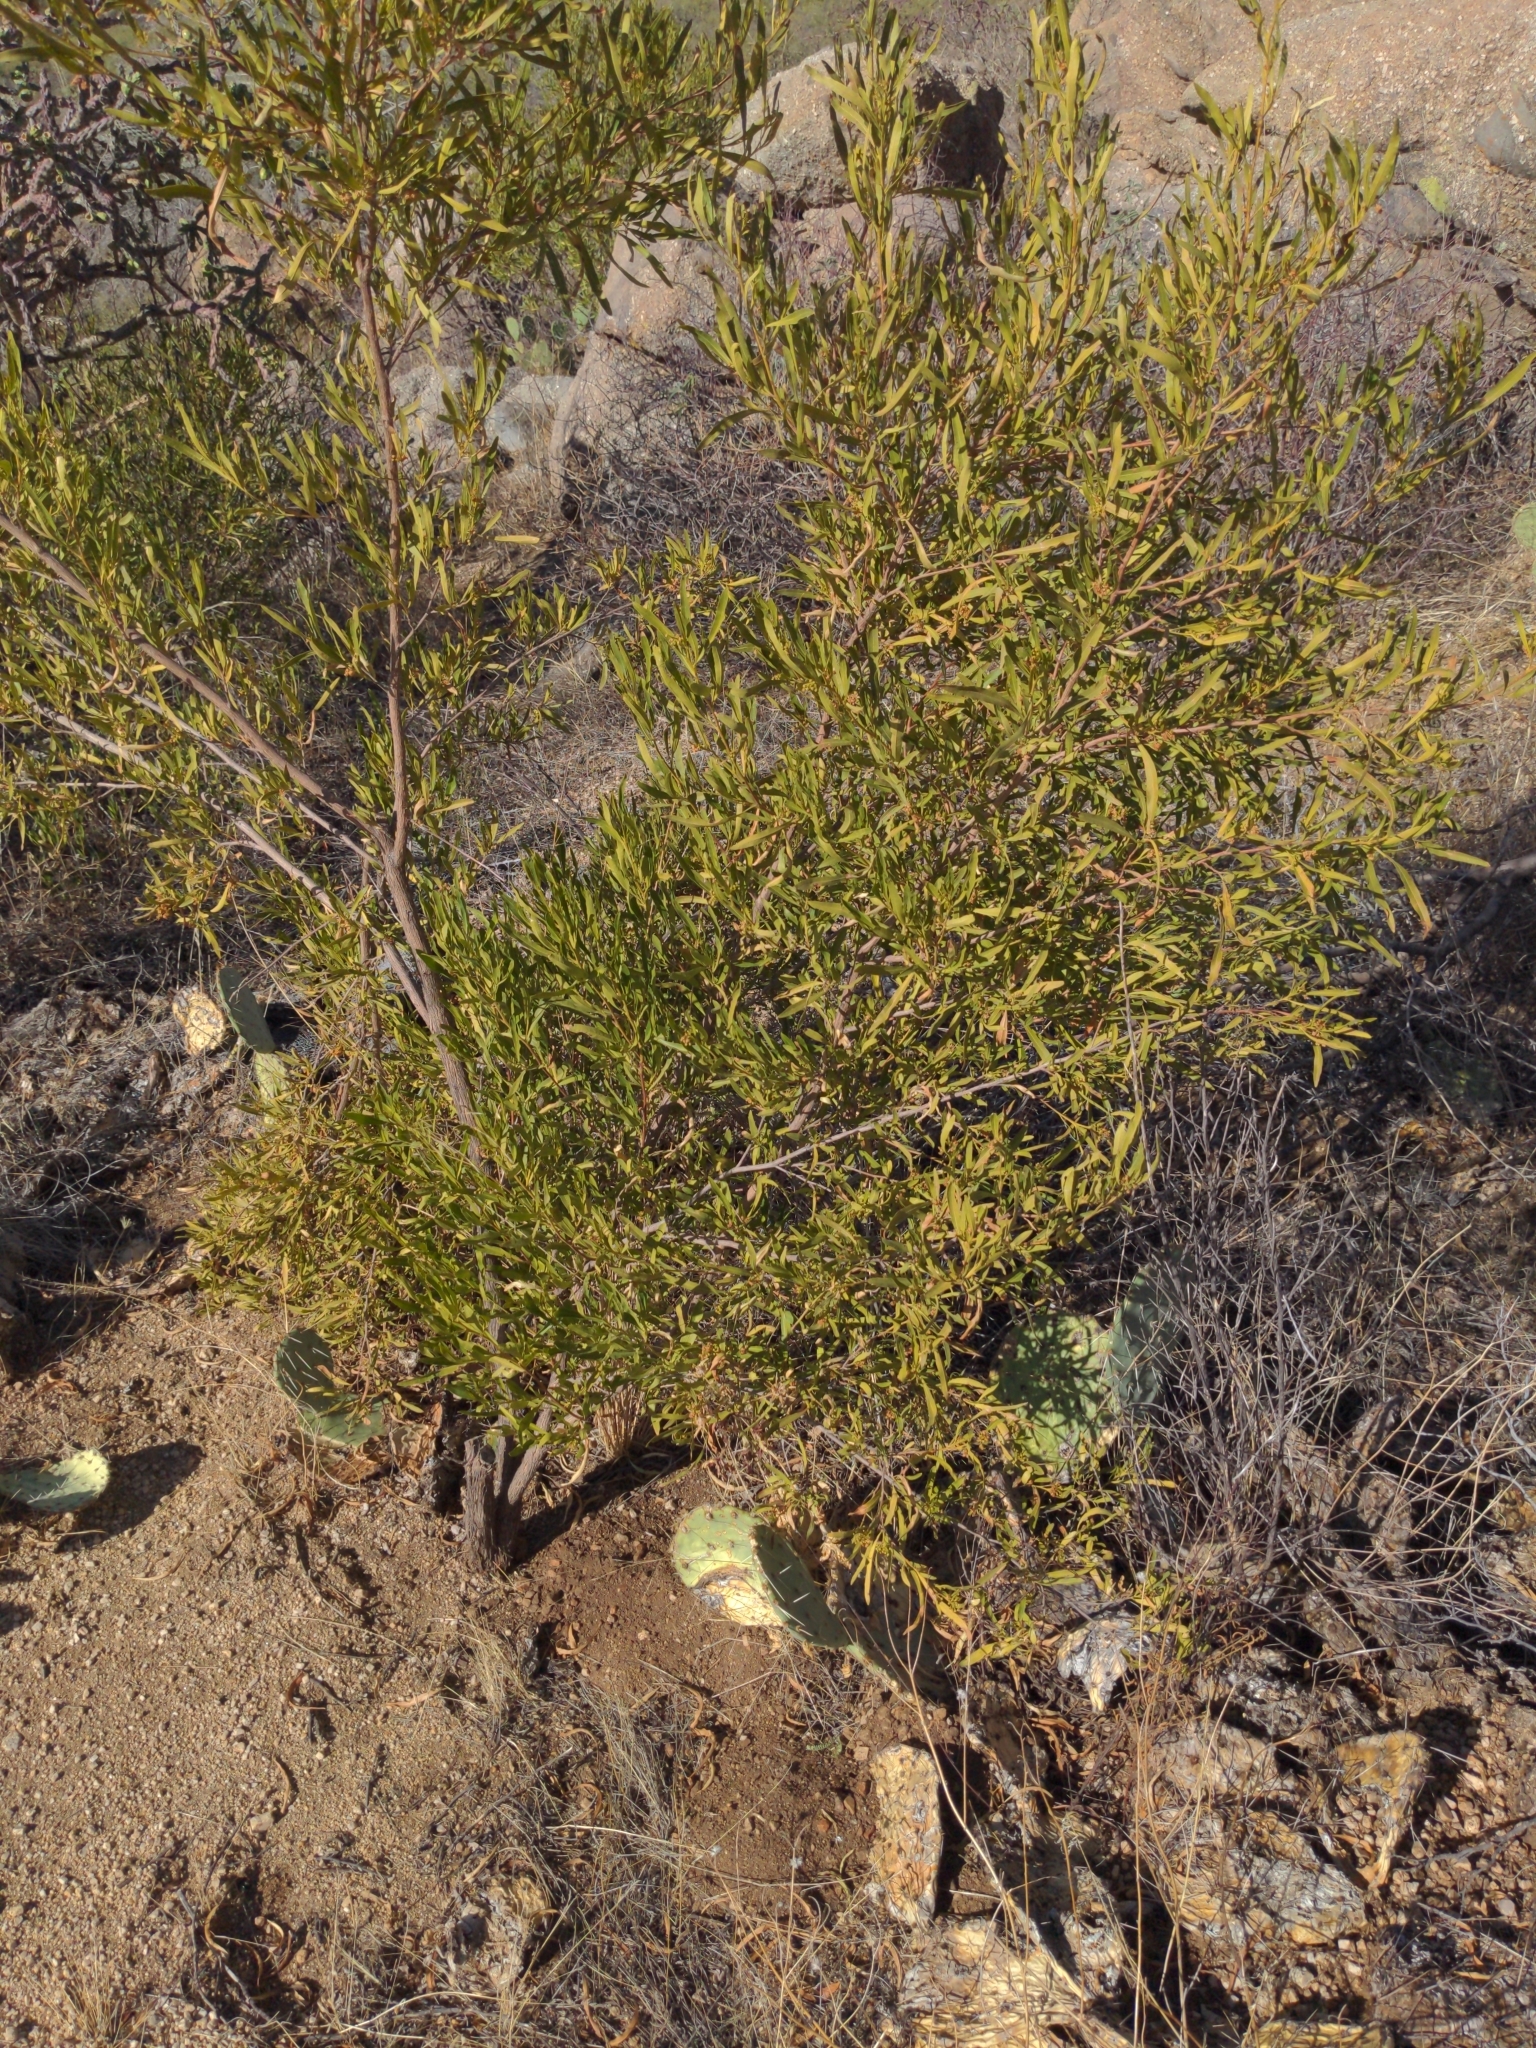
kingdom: Plantae
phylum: Tracheophyta
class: Magnoliopsida
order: Sapindales
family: Sapindaceae
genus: Dodonaea
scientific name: Dodonaea viscosa
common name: Hopbush
